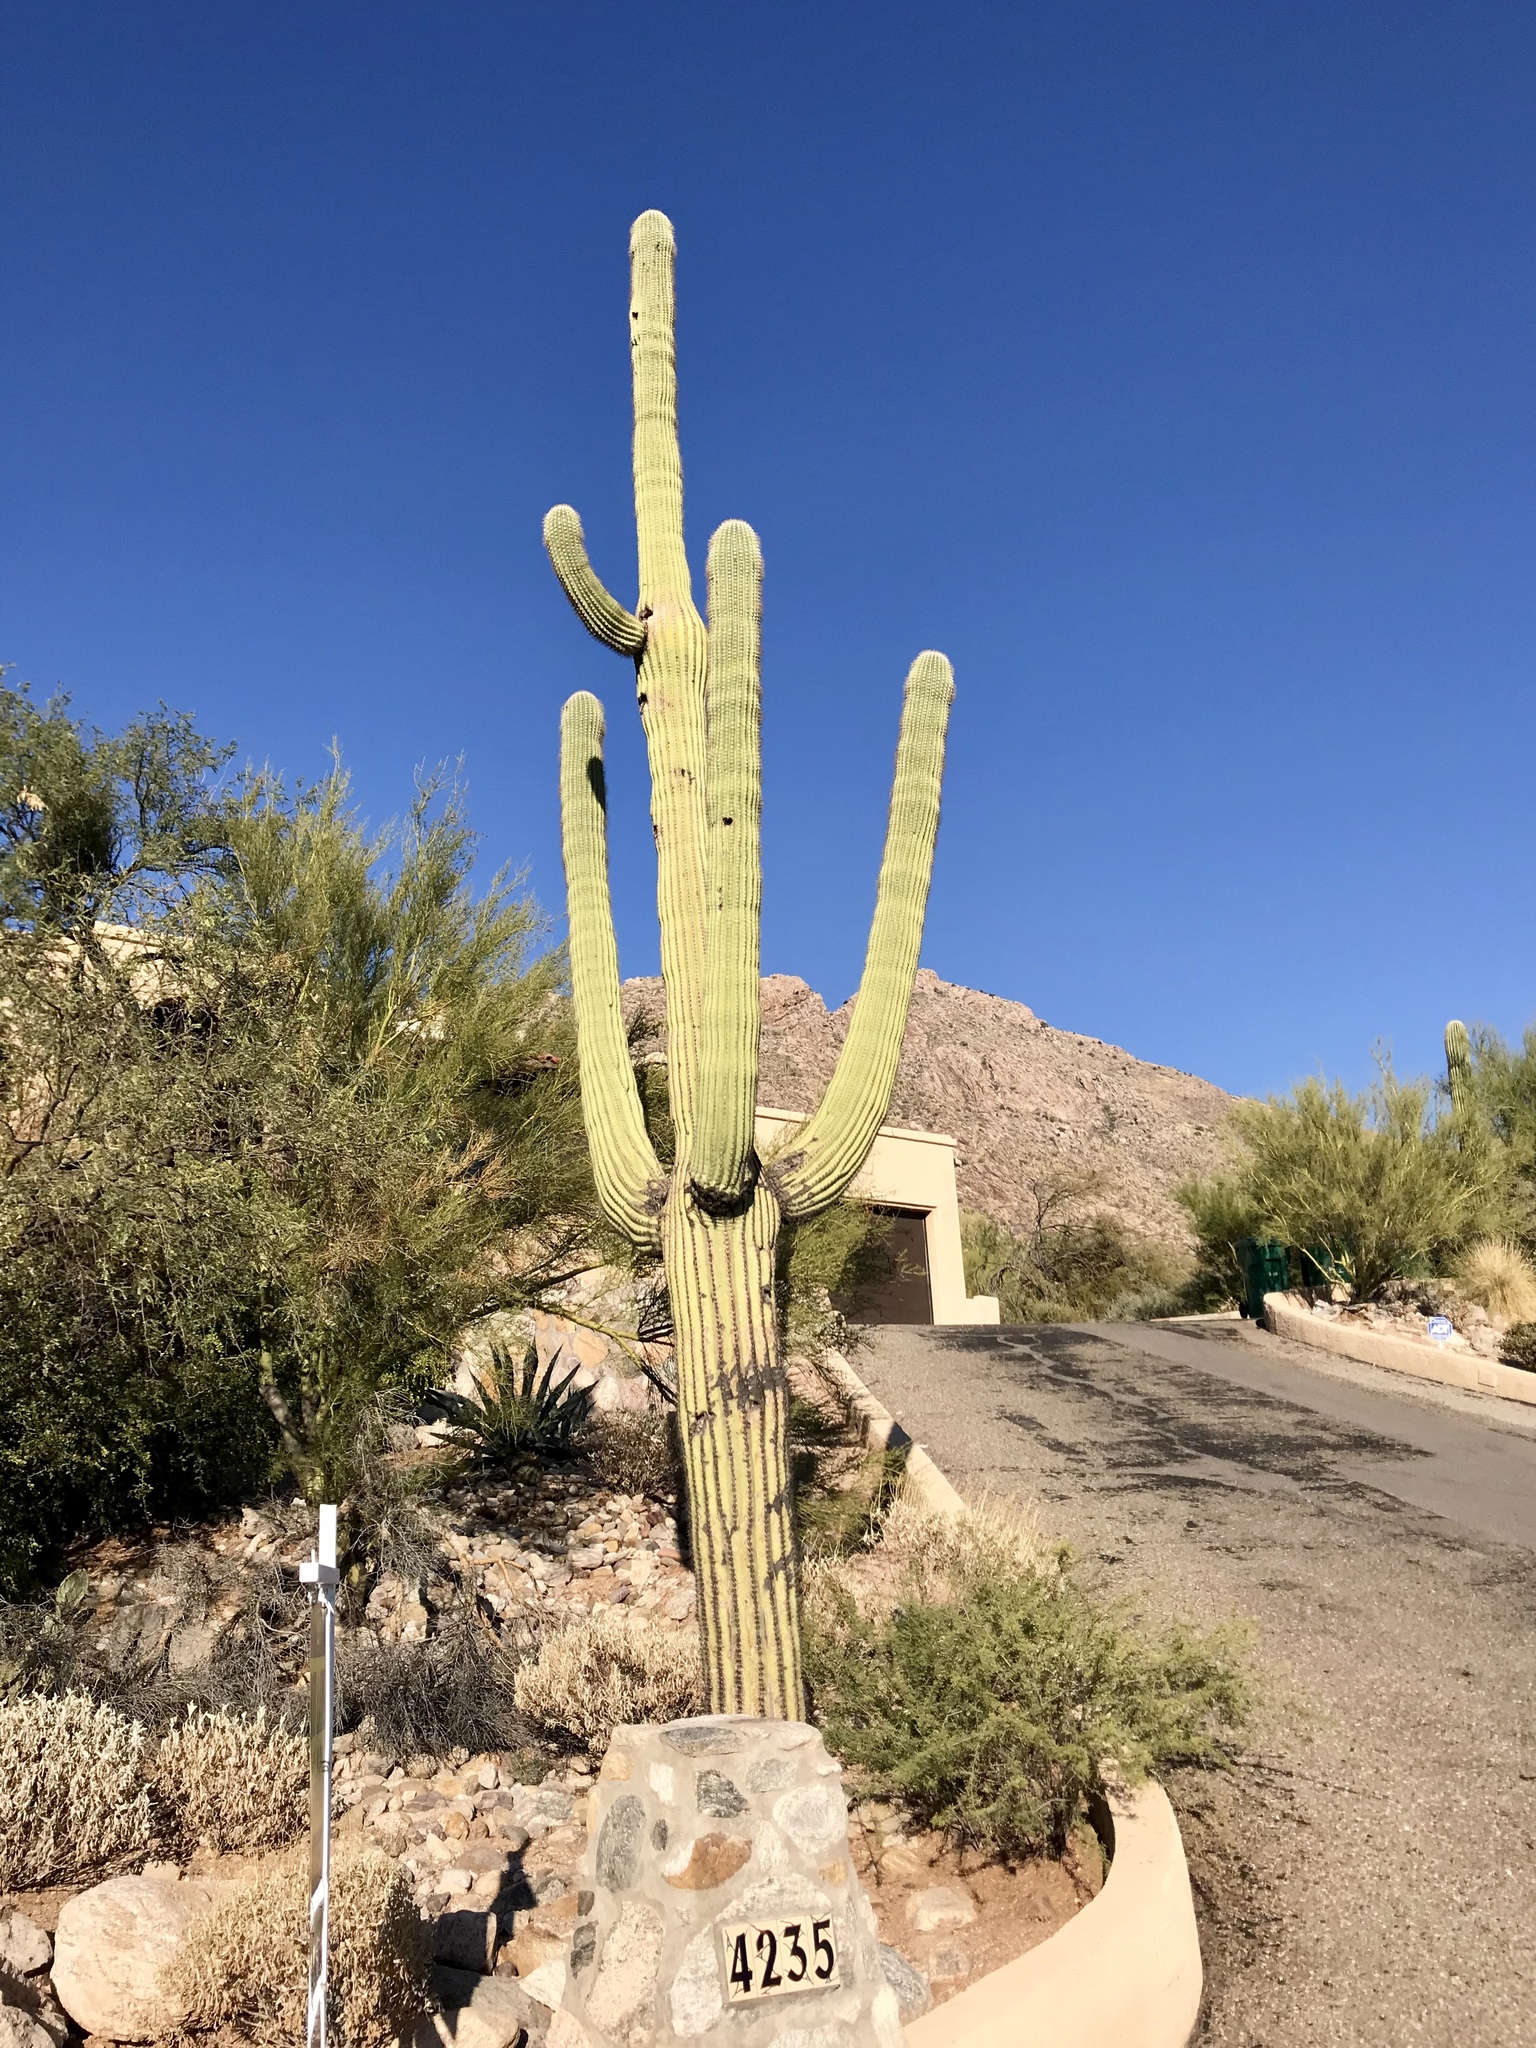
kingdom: Plantae
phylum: Tracheophyta
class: Magnoliopsida
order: Caryophyllales
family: Cactaceae
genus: Carnegiea
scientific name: Carnegiea gigantea
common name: Saguaro
